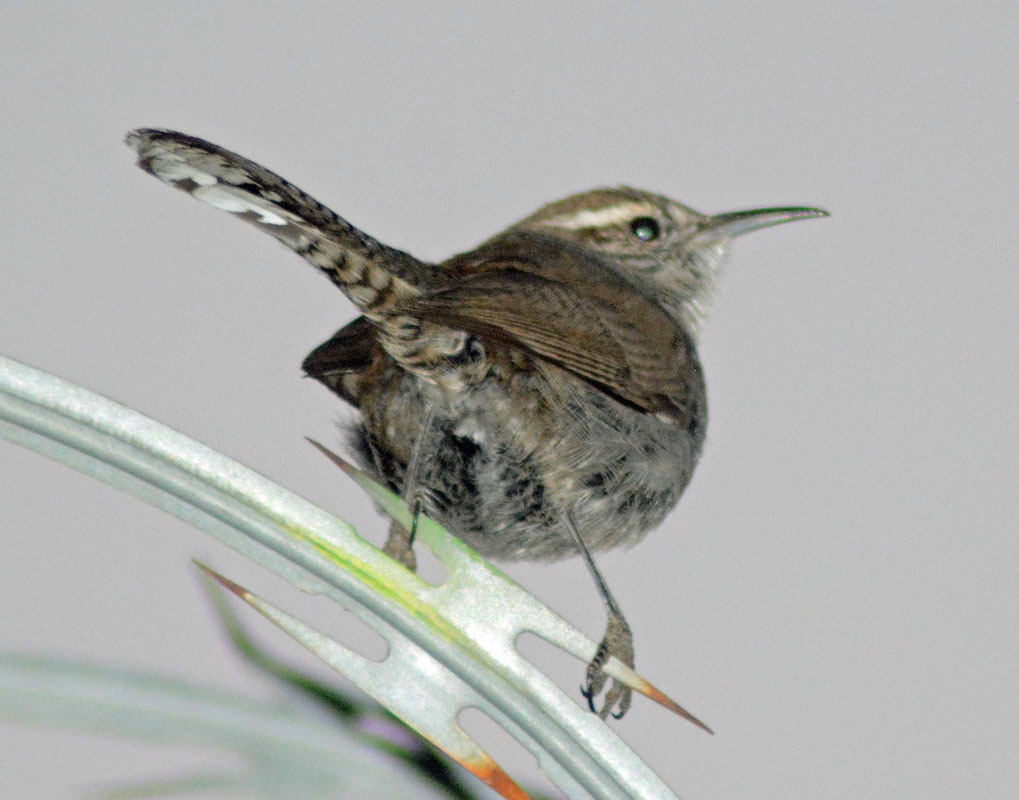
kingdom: Animalia
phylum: Chordata
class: Aves
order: Passeriformes
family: Troglodytidae
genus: Thryomanes
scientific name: Thryomanes bewickii
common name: Bewick's wren
